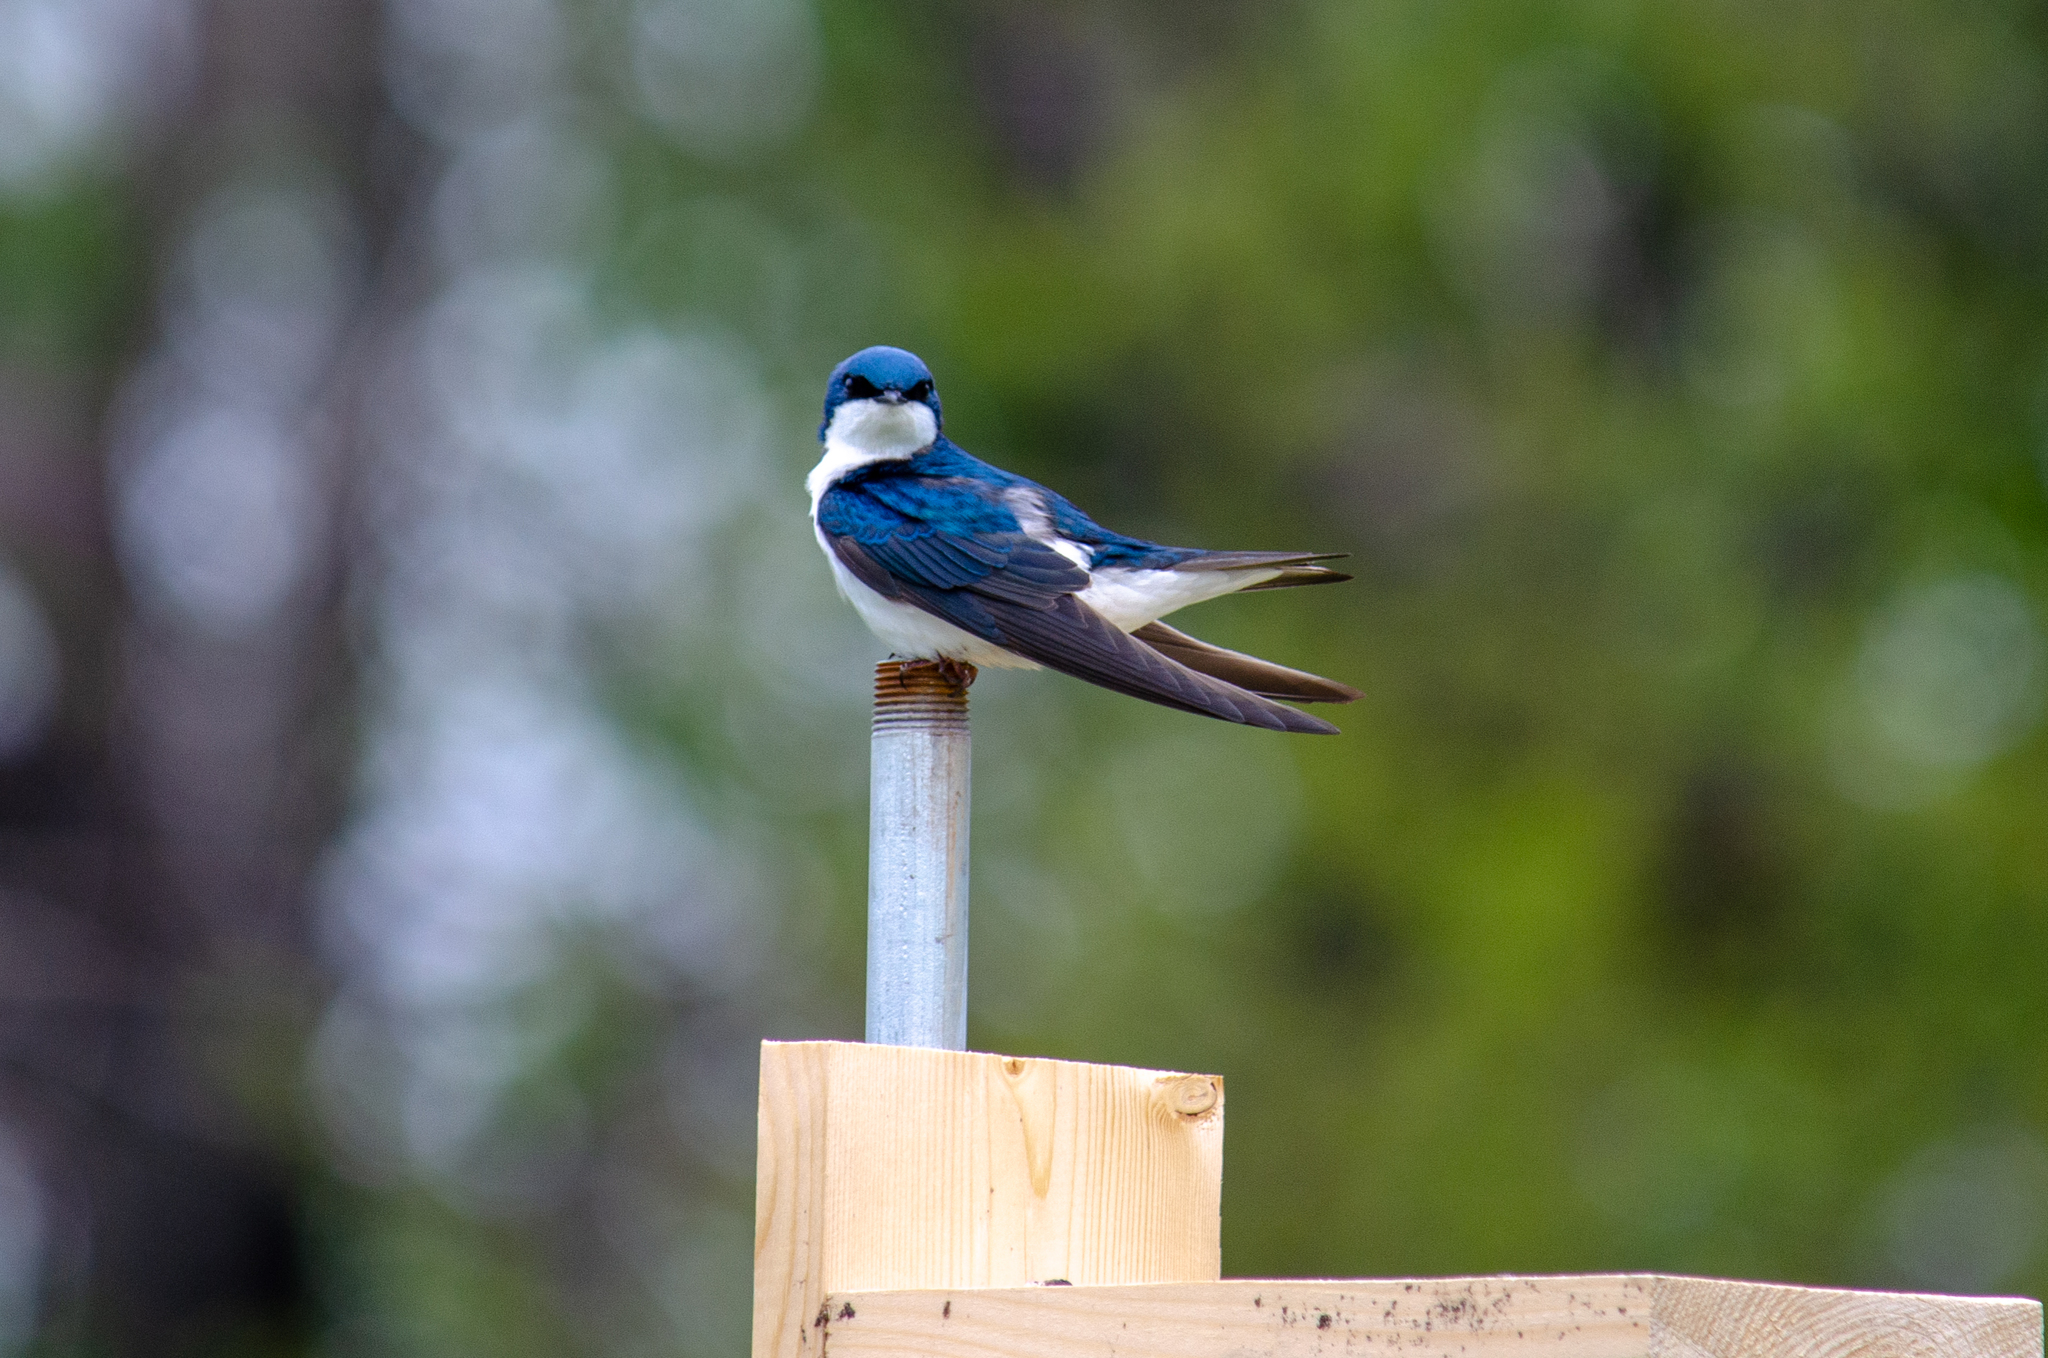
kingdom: Animalia
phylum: Chordata
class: Aves
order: Passeriformes
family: Hirundinidae
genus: Tachycineta
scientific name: Tachycineta bicolor
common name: Tree swallow
